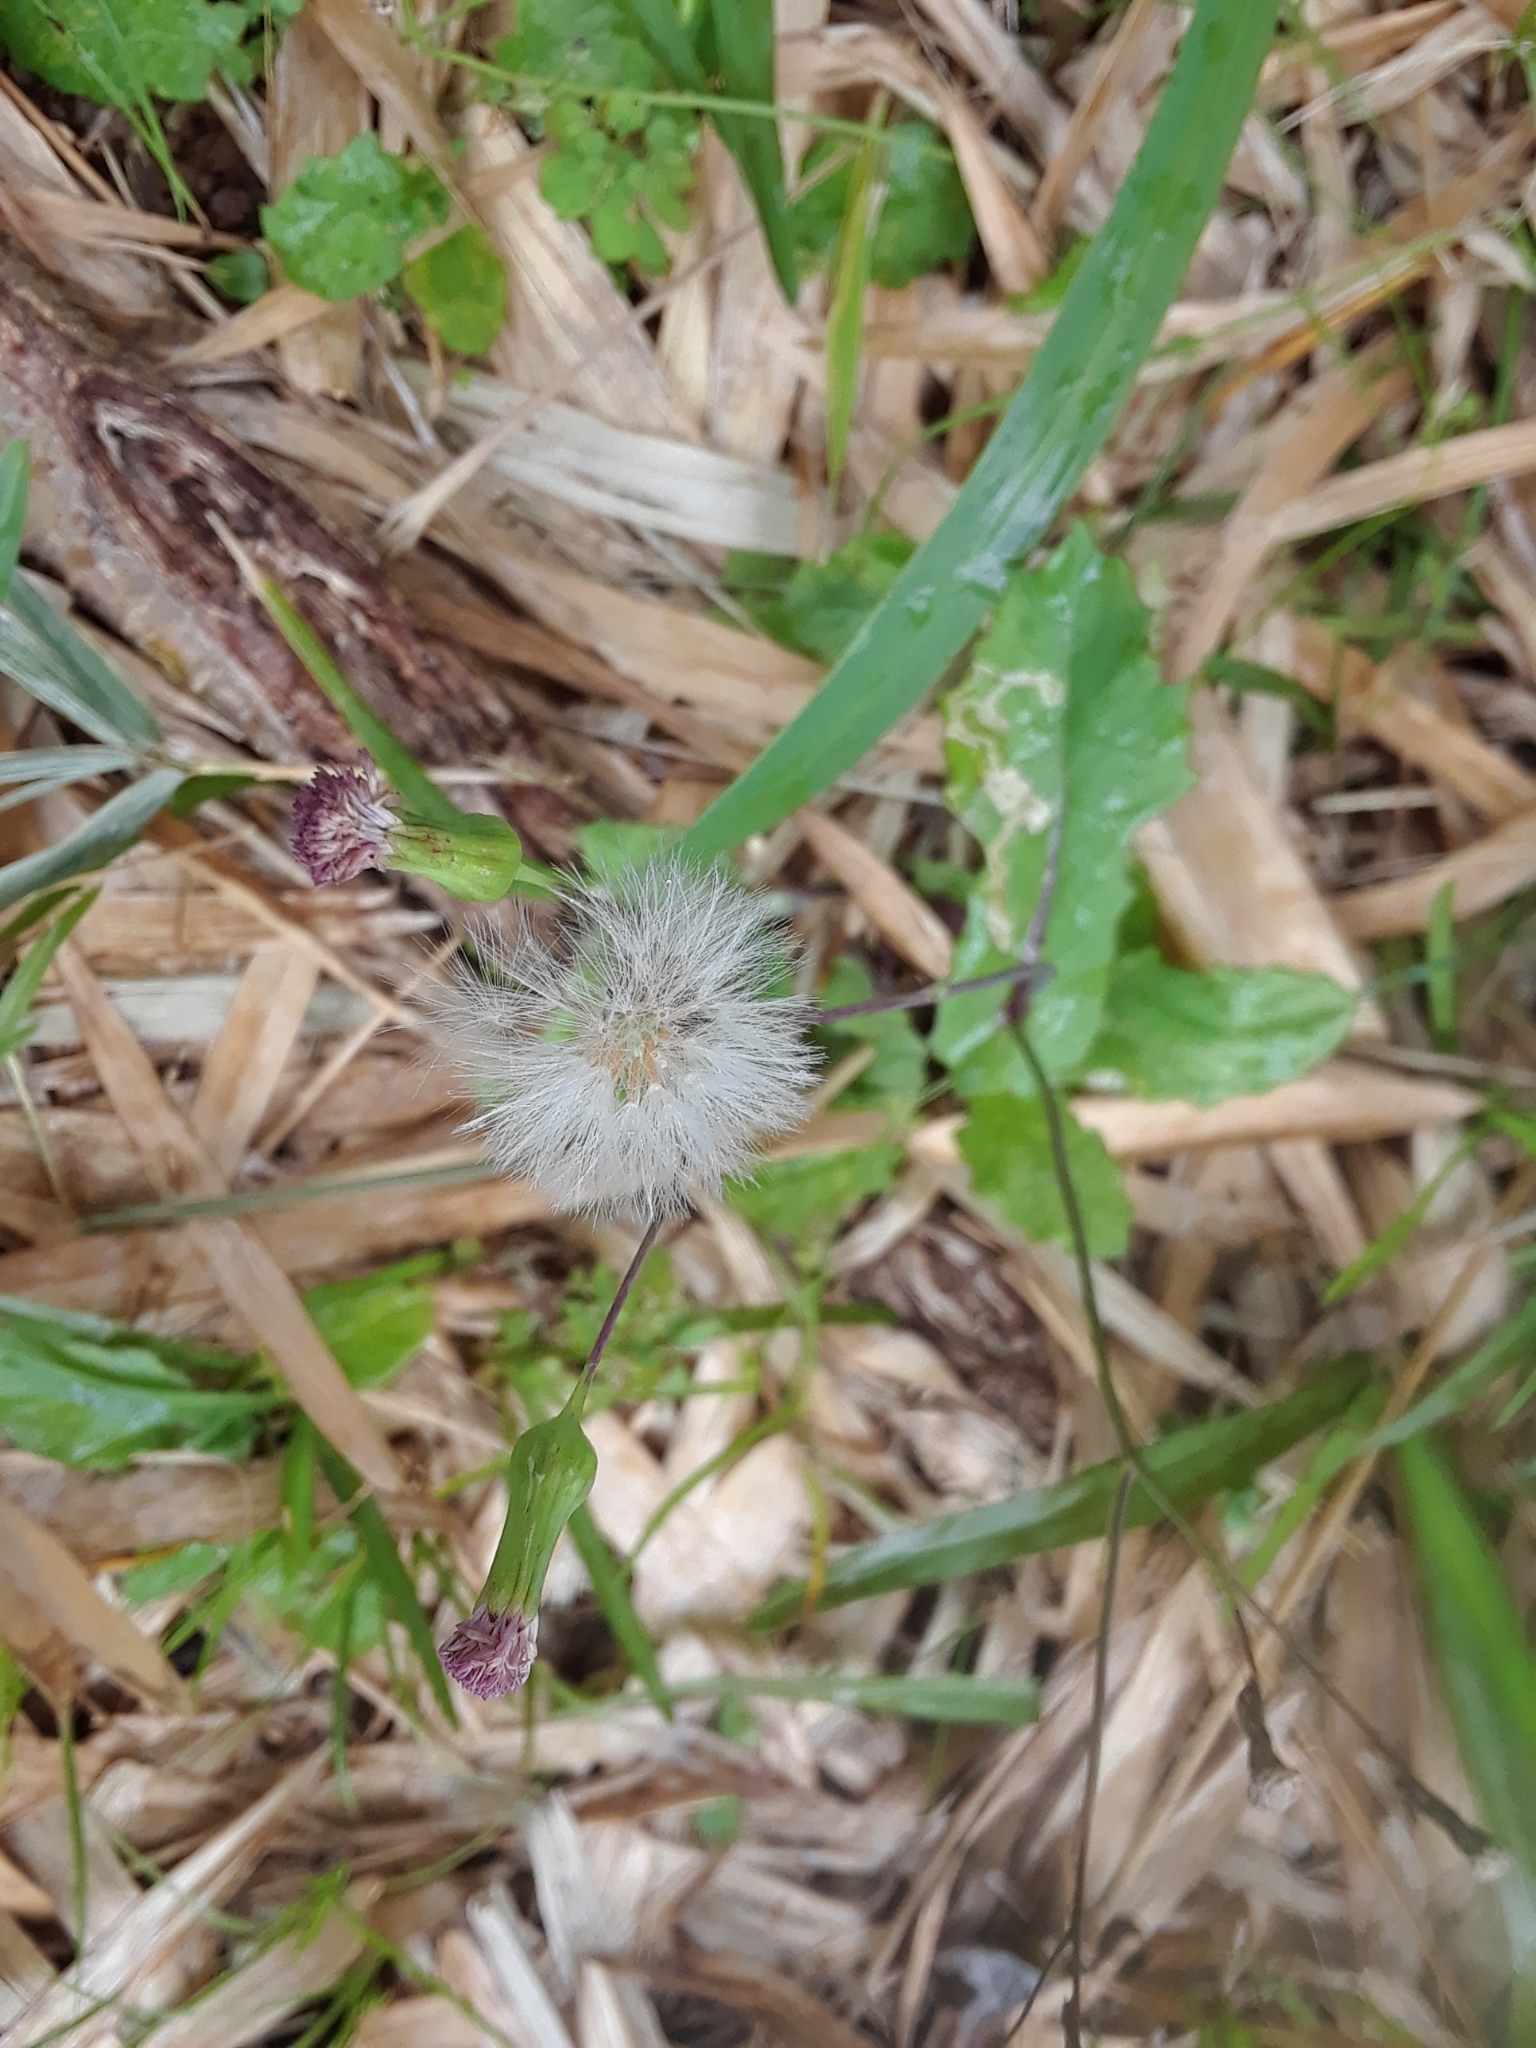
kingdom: Plantae
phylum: Tracheophyta
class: Magnoliopsida
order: Asterales
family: Asteraceae
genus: Emilia
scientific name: Emilia sonchifolia
